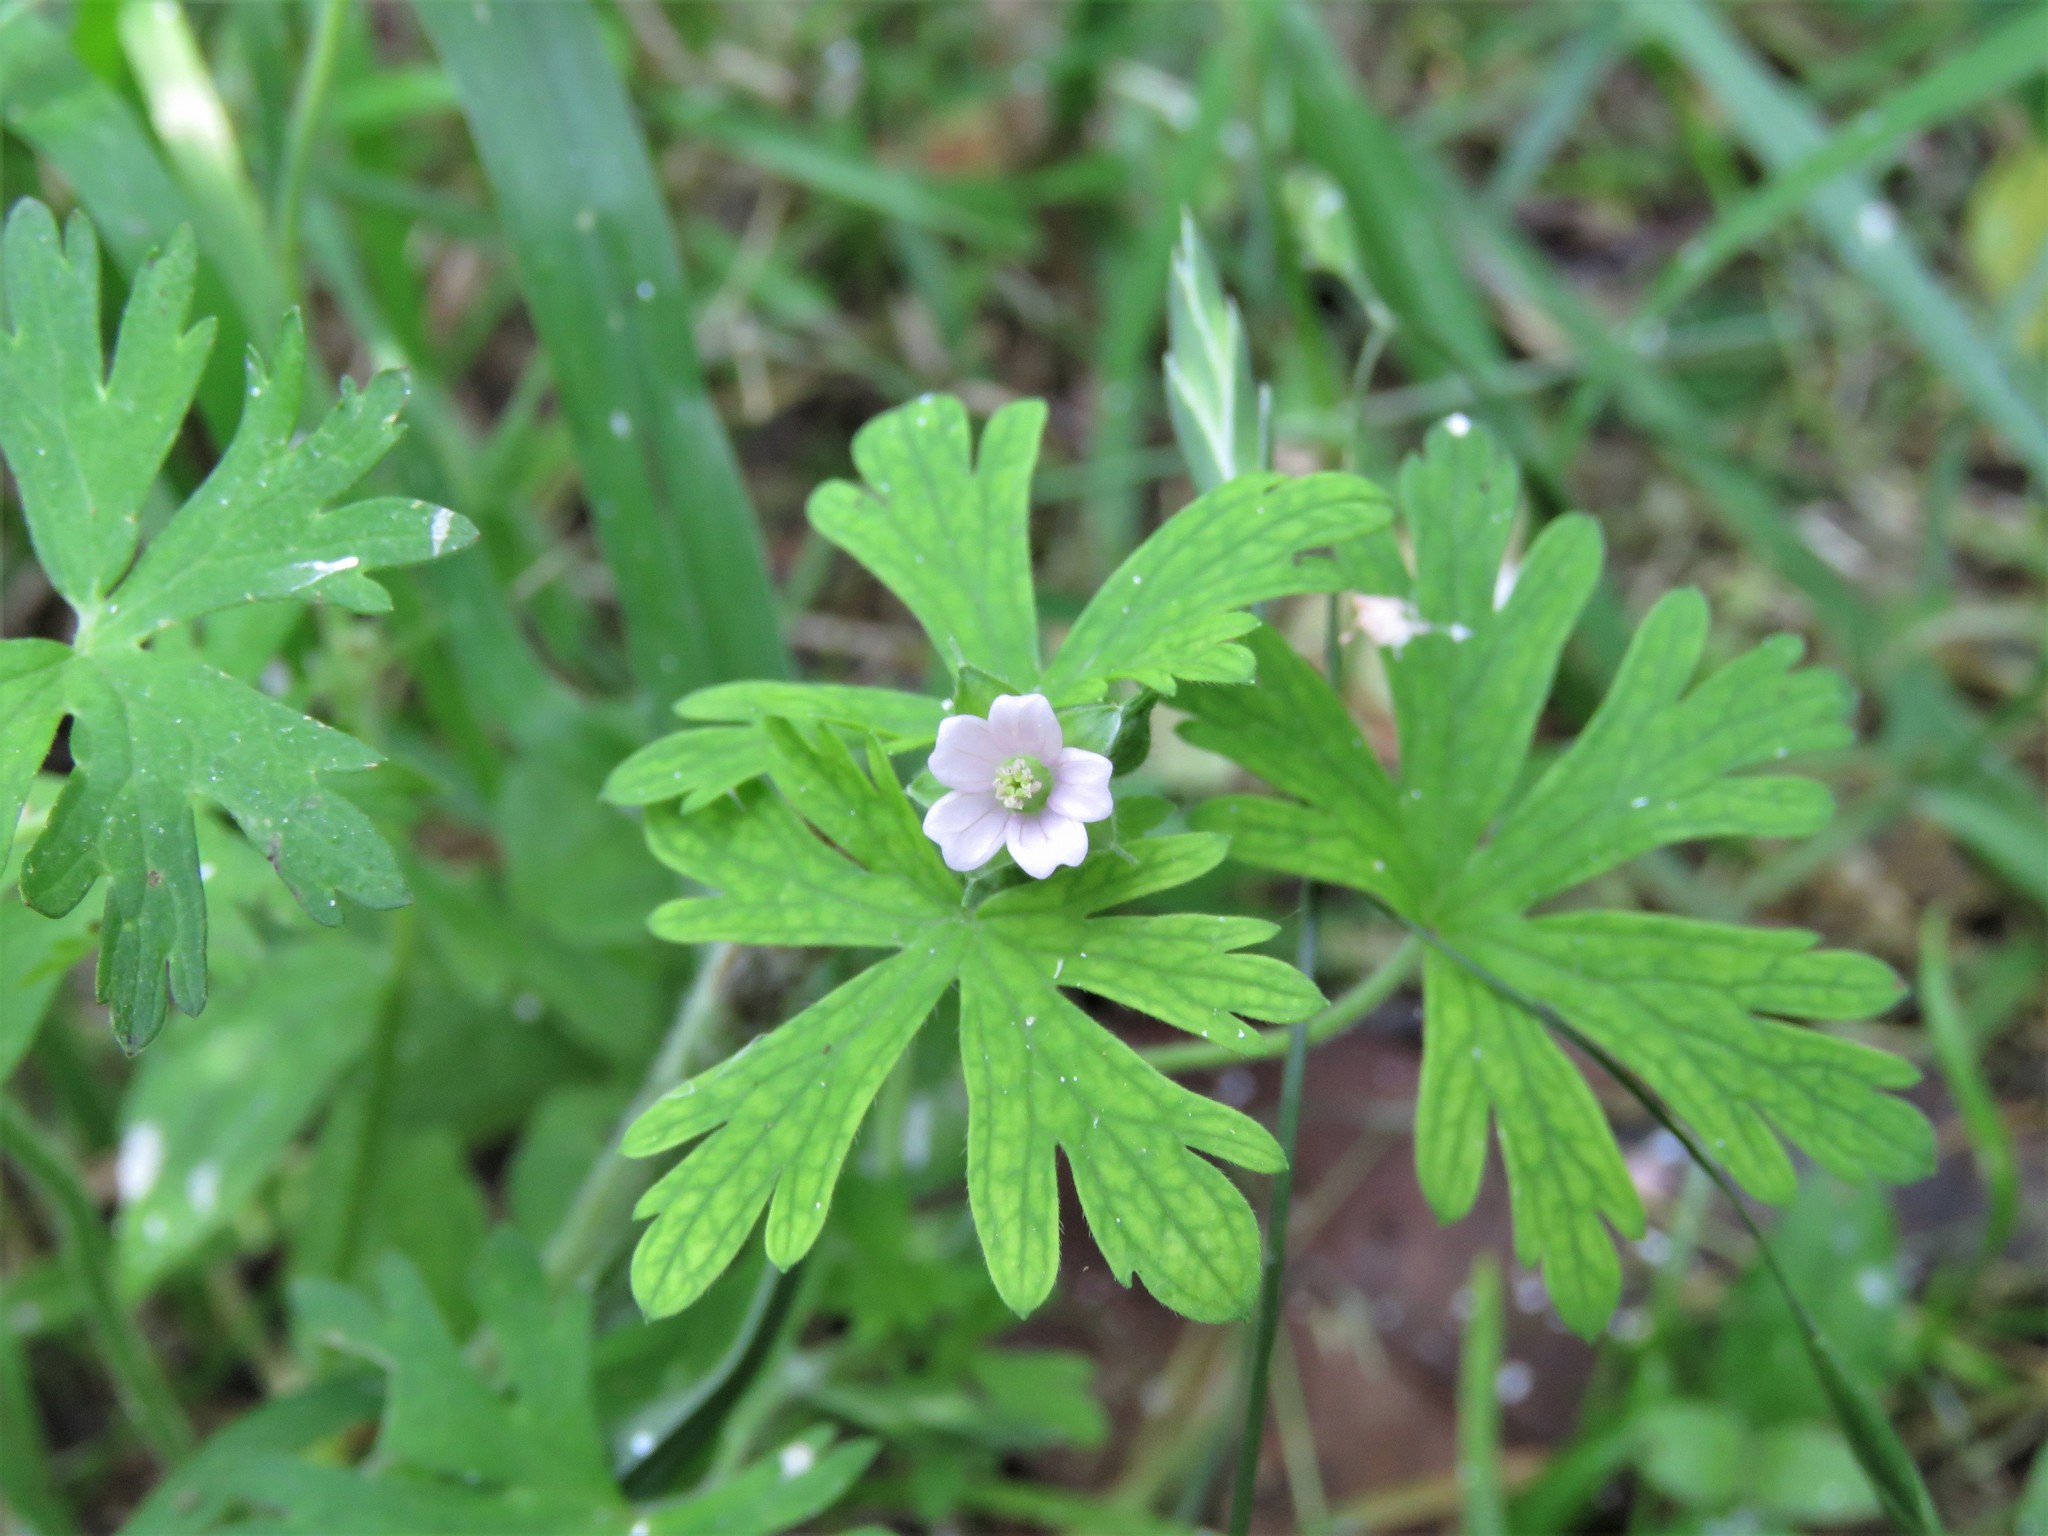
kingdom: Plantae
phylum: Tracheophyta
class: Magnoliopsida
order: Geraniales
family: Geraniaceae
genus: Geranium
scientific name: Geranium carolinianum
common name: Carolina crane's-bill
